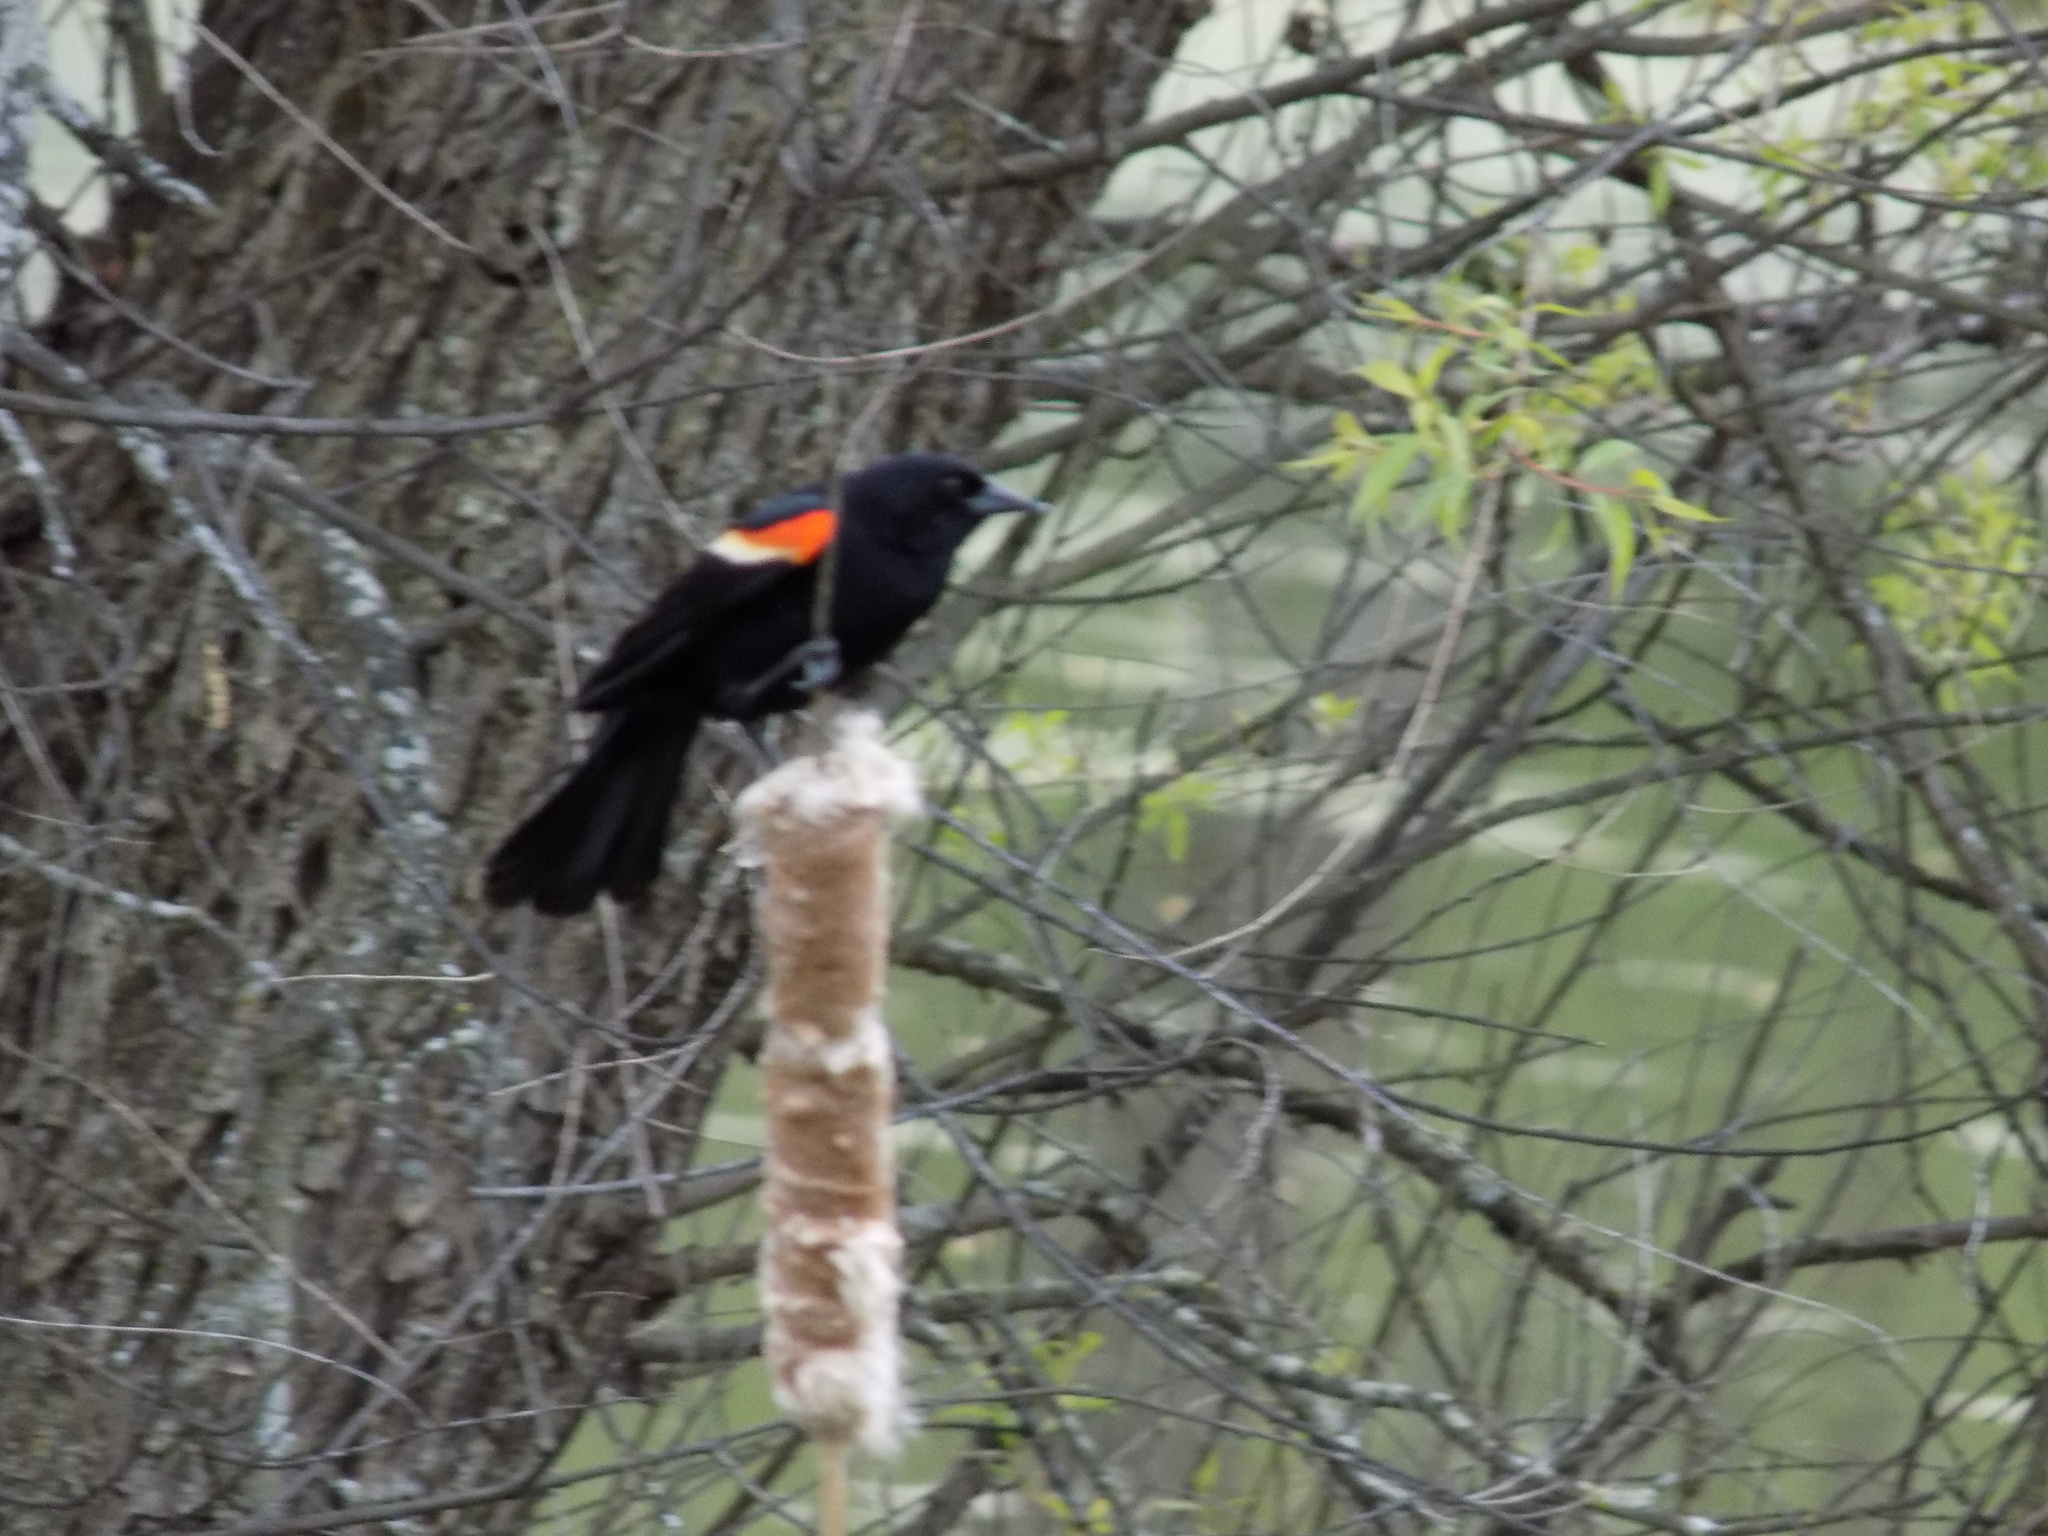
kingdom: Animalia
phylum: Chordata
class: Aves
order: Passeriformes
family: Icteridae
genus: Agelaius
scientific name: Agelaius phoeniceus
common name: Red-winged blackbird
